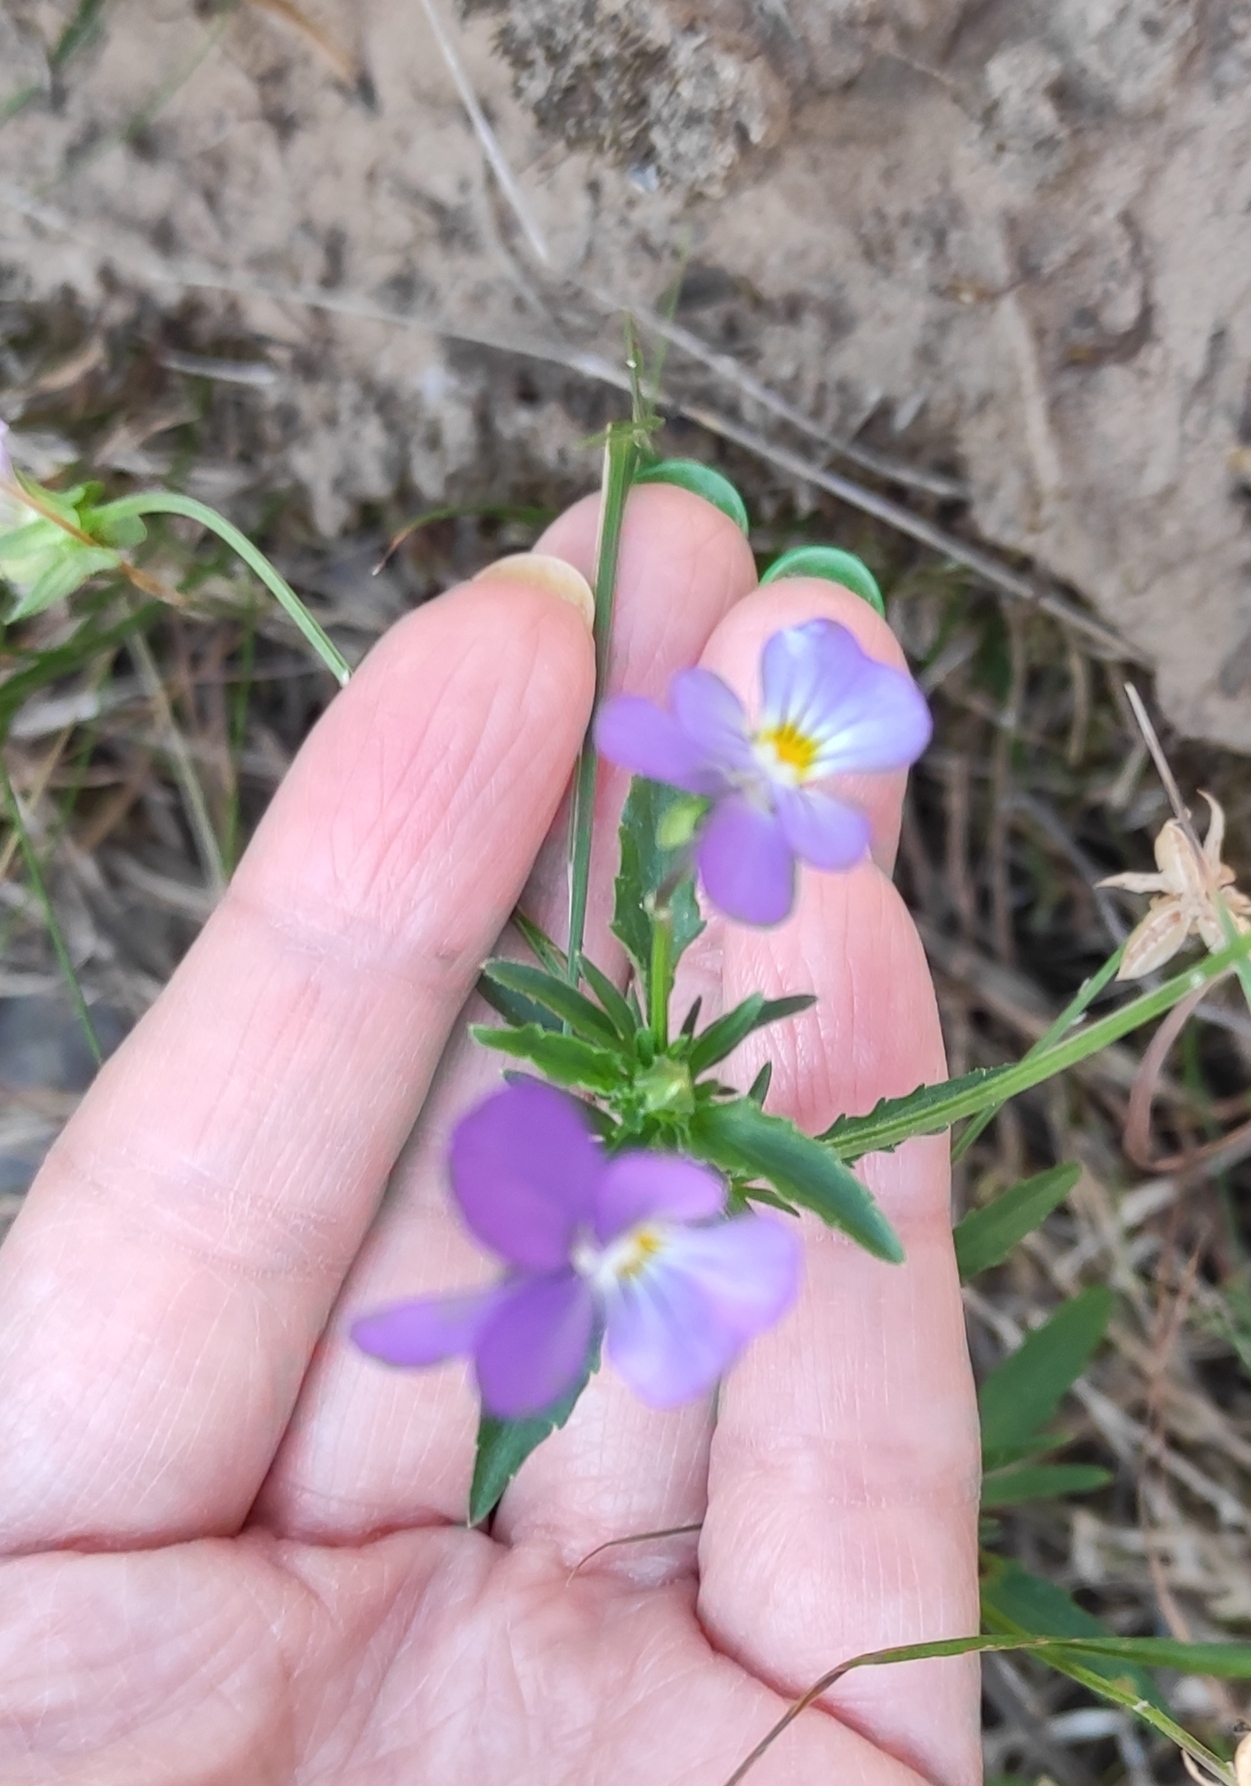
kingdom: Plantae
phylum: Tracheophyta
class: Magnoliopsida
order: Malpighiales
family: Violaceae
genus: Viola
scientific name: Viola tricolor
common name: Pansy
